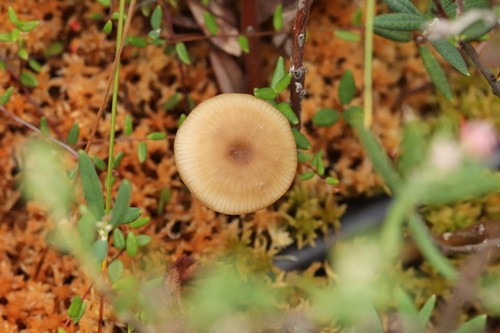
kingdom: Fungi
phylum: Basidiomycota
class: Agaricomycetes
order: Agaricales
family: Lyophyllaceae
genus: Sphagnurus
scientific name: Sphagnurus paluster
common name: Sphagnum greyling
